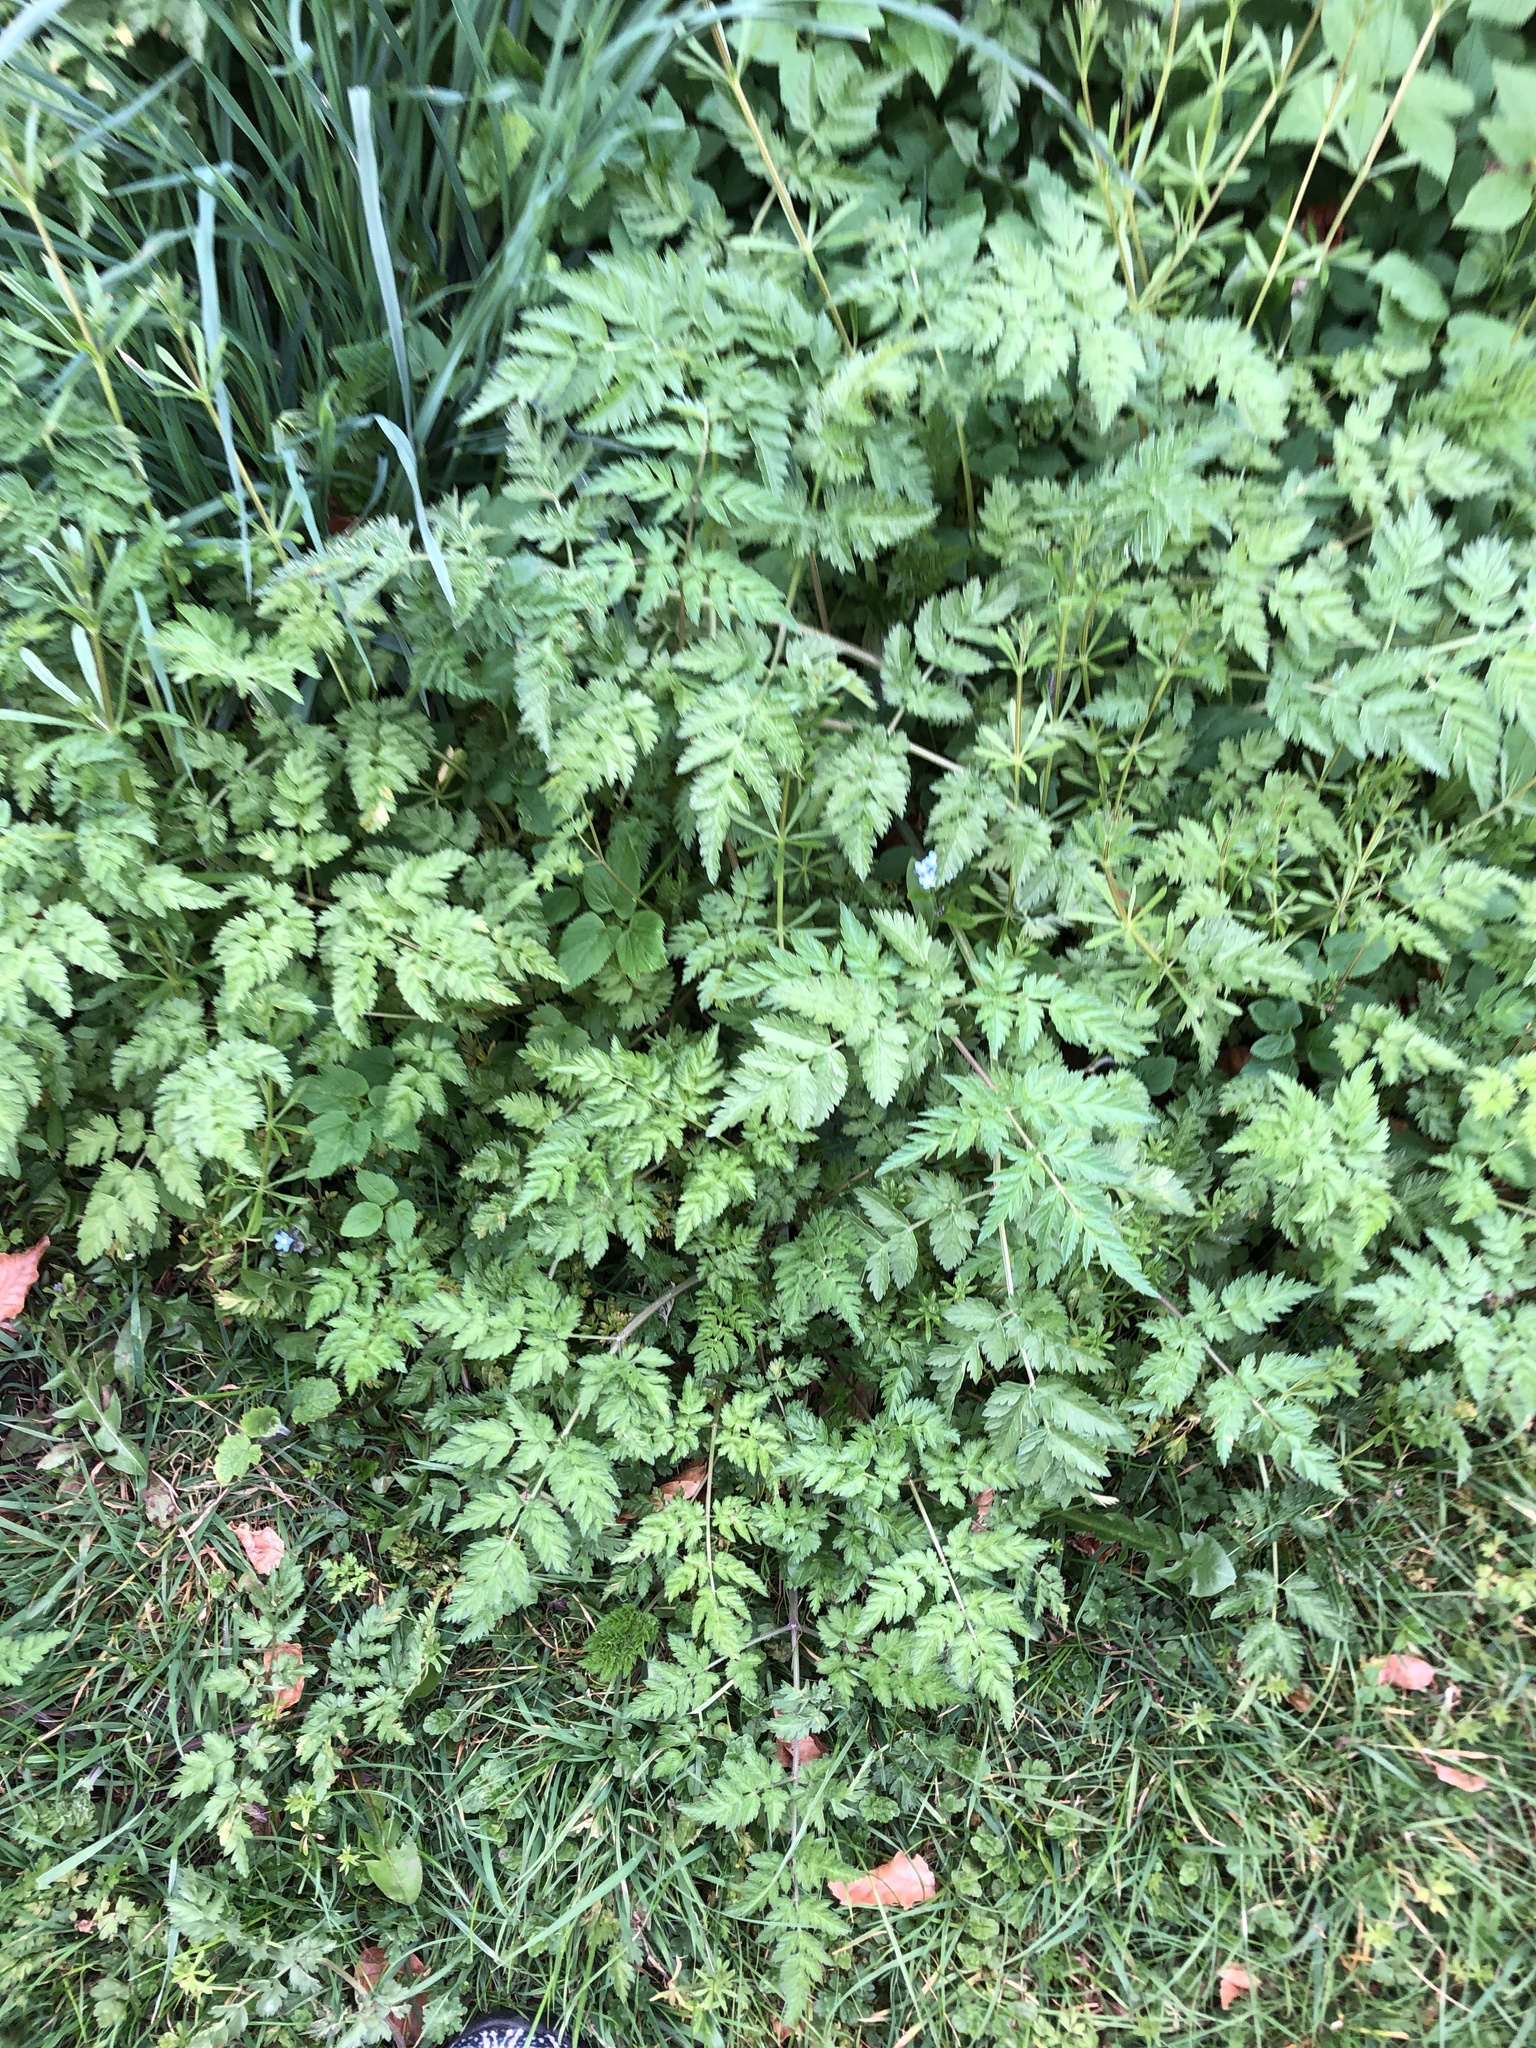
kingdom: Plantae
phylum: Tracheophyta
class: Magnoliopsida
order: Apiales
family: Apiaceae
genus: Anthriscus
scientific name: Anthriscus sylvestris
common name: Cow parsley
